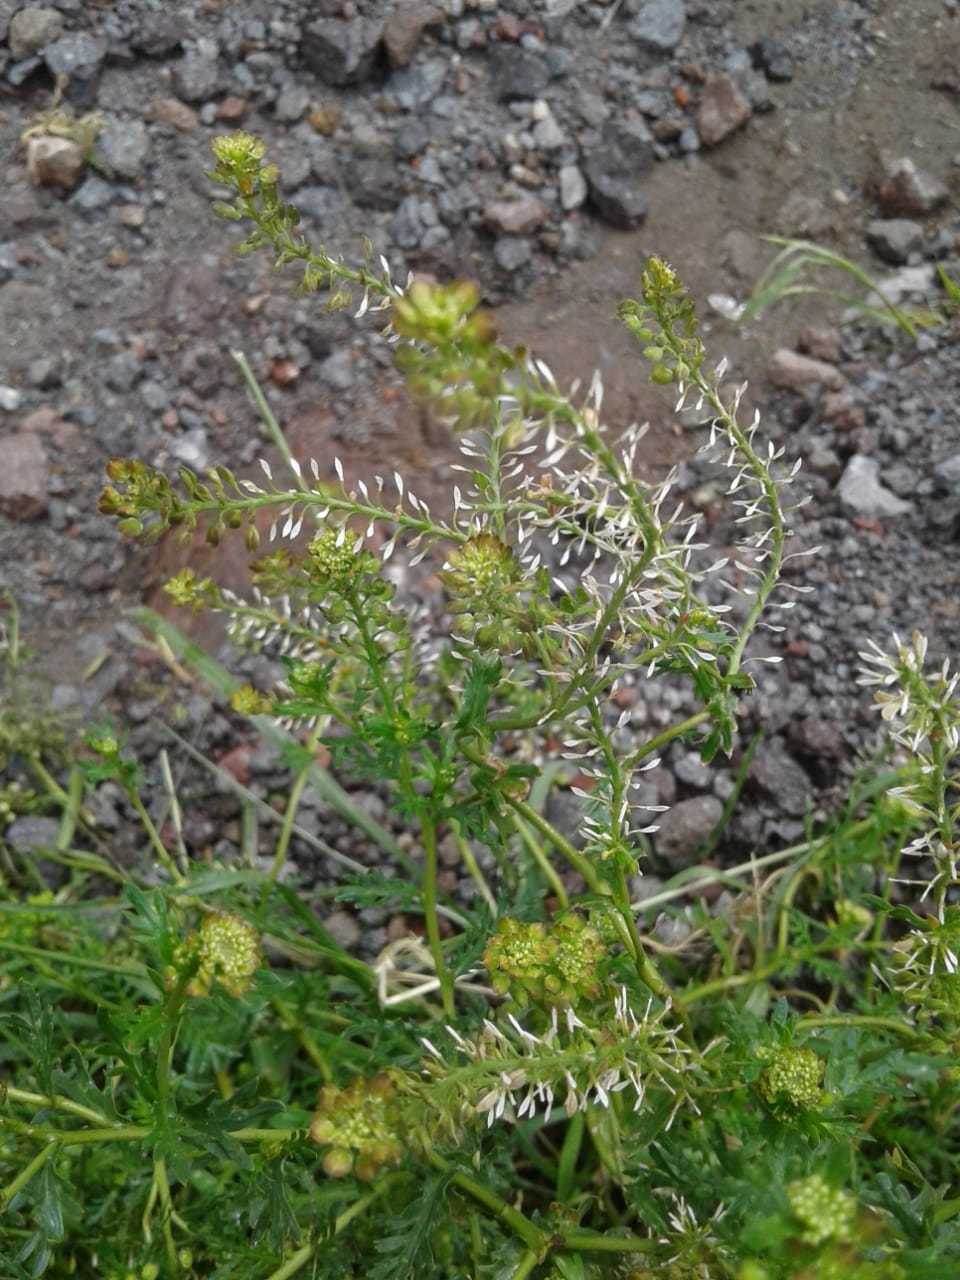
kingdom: Plantae
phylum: Tracheophyta
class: Magnoliopsida
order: Brassicales
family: Brassicaceae
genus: Lepidium
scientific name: Lepidium bipinnatifidum
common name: Wayside pepperwort
